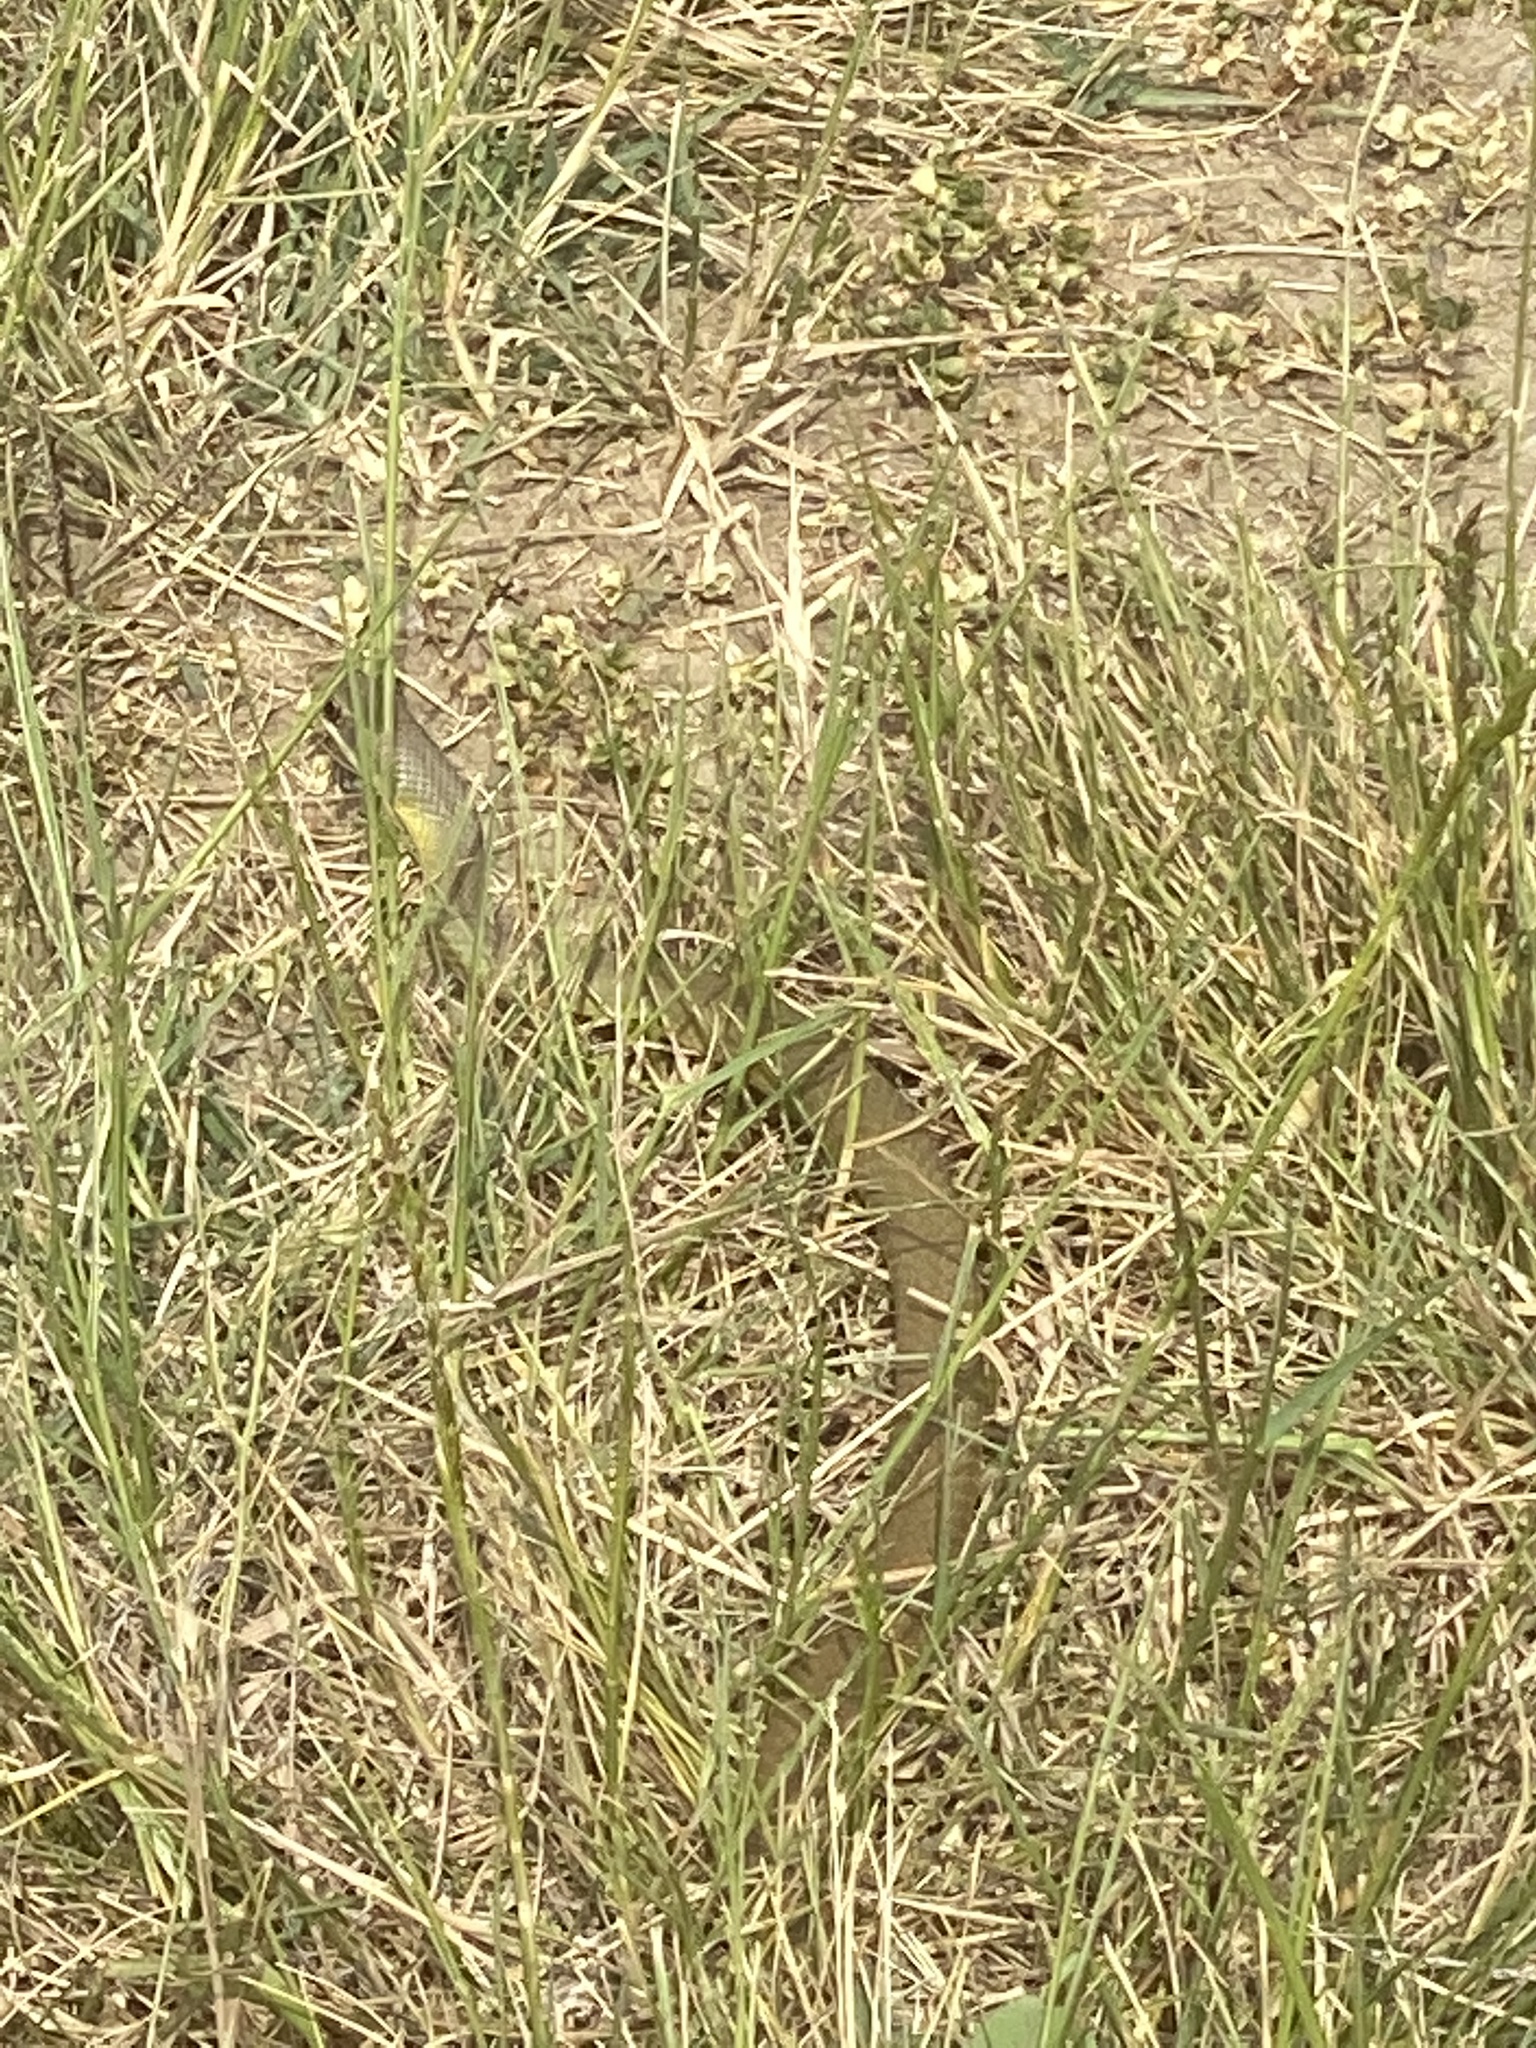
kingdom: Animalia
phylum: Chordata
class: Squamata
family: Colubridae
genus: Coluber
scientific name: Coluber constrictor
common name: Eastern racer
